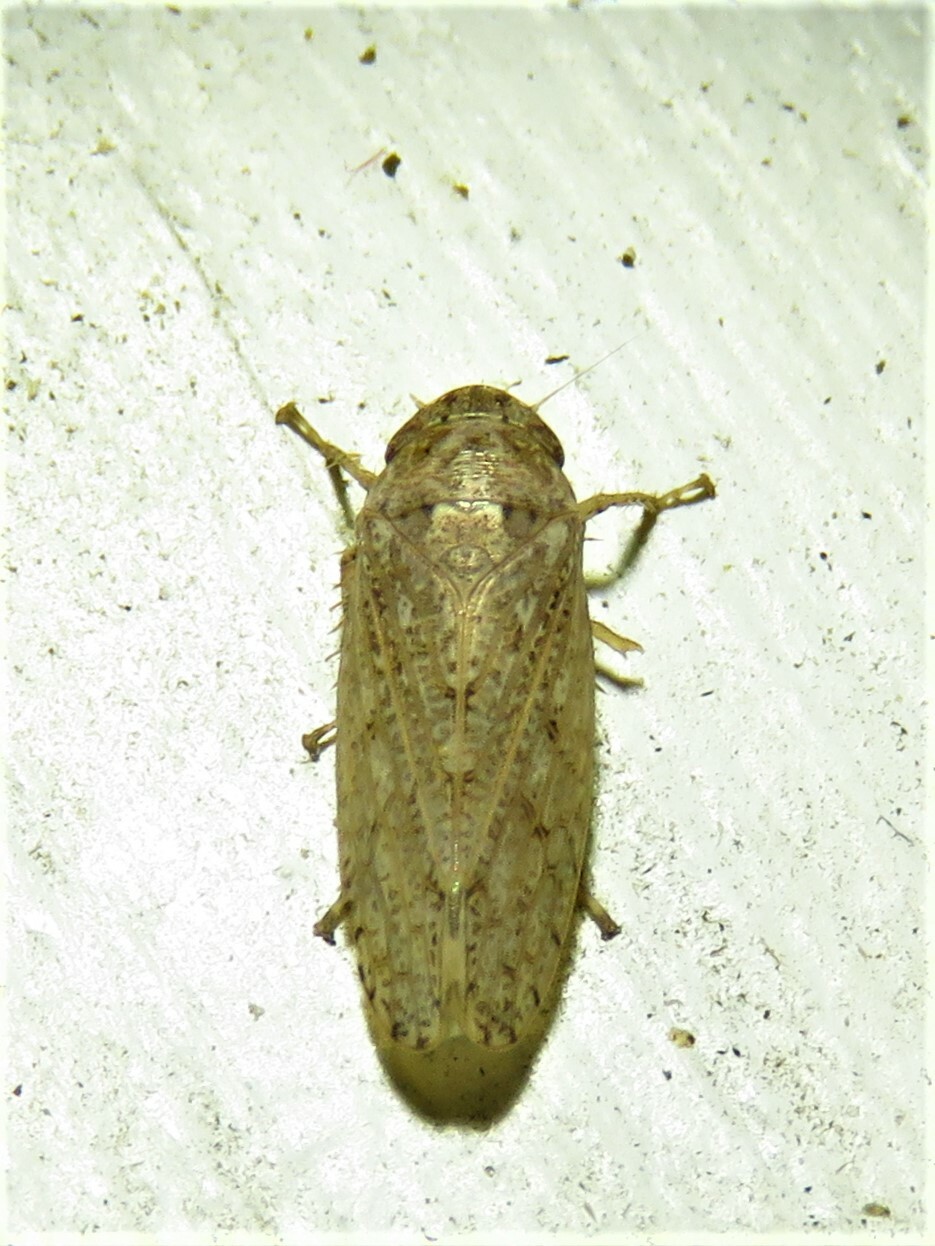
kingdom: Animalia
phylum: Arthropoda
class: Insecta
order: Hemiptera
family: Cicadellidae
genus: Curtara
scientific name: Curtara insularis
